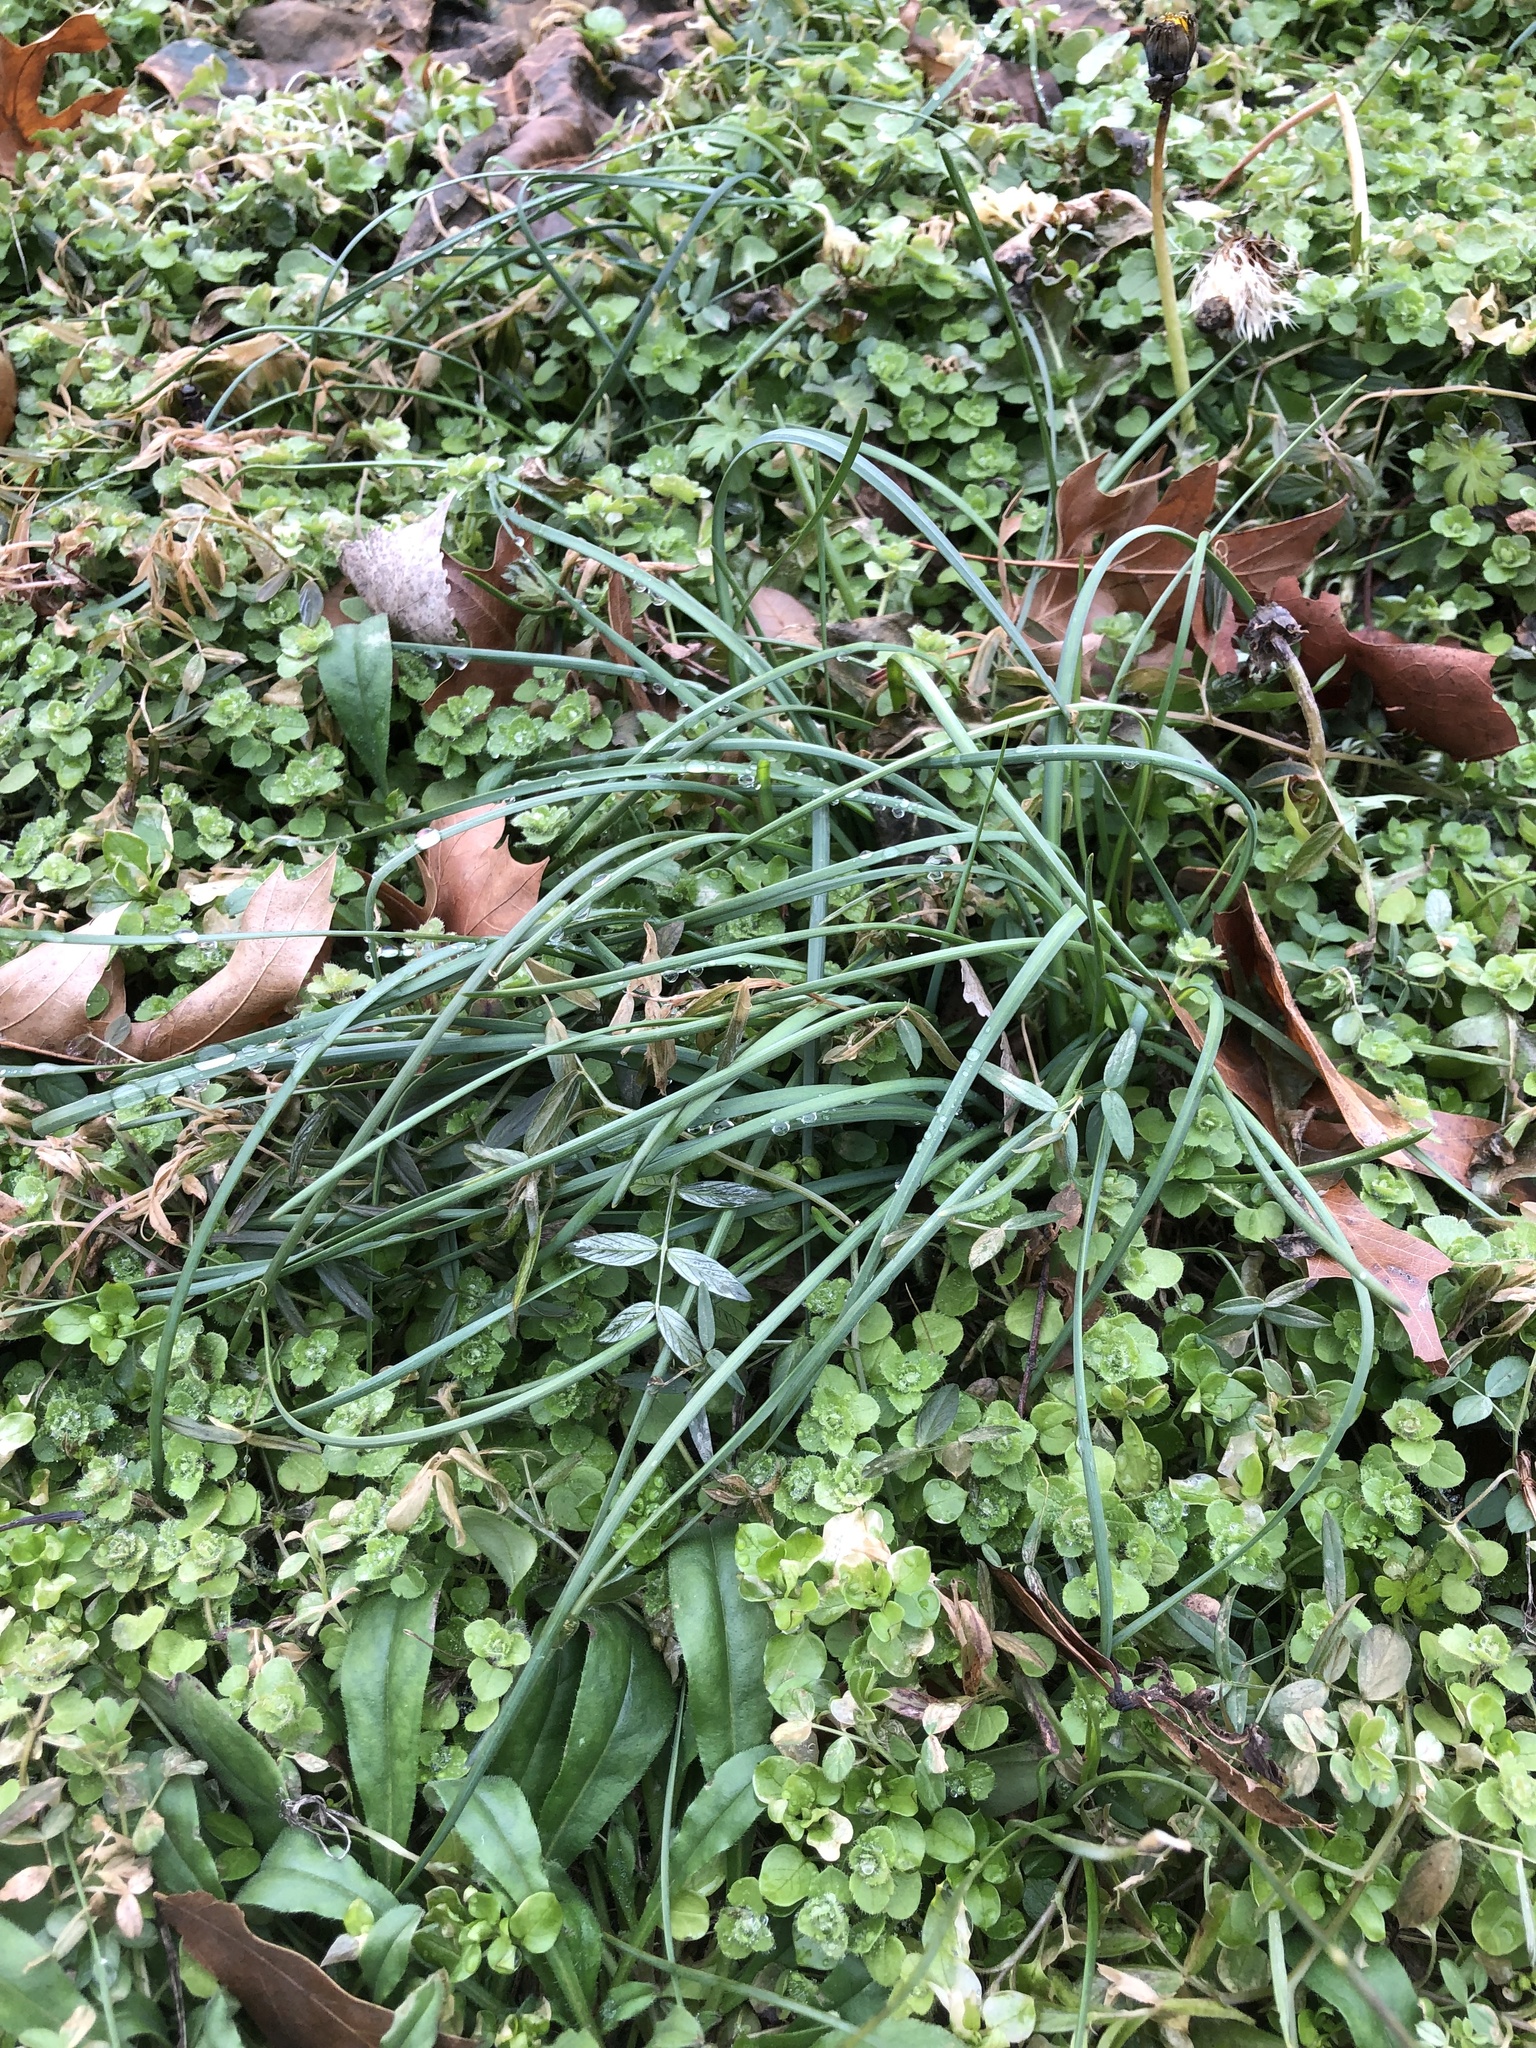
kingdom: Plantae
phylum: Tracheophyta
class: Liliopsida
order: Asparagales
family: Amaryllidaceae
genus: Allium
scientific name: Allium vineale
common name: Crow garlic
